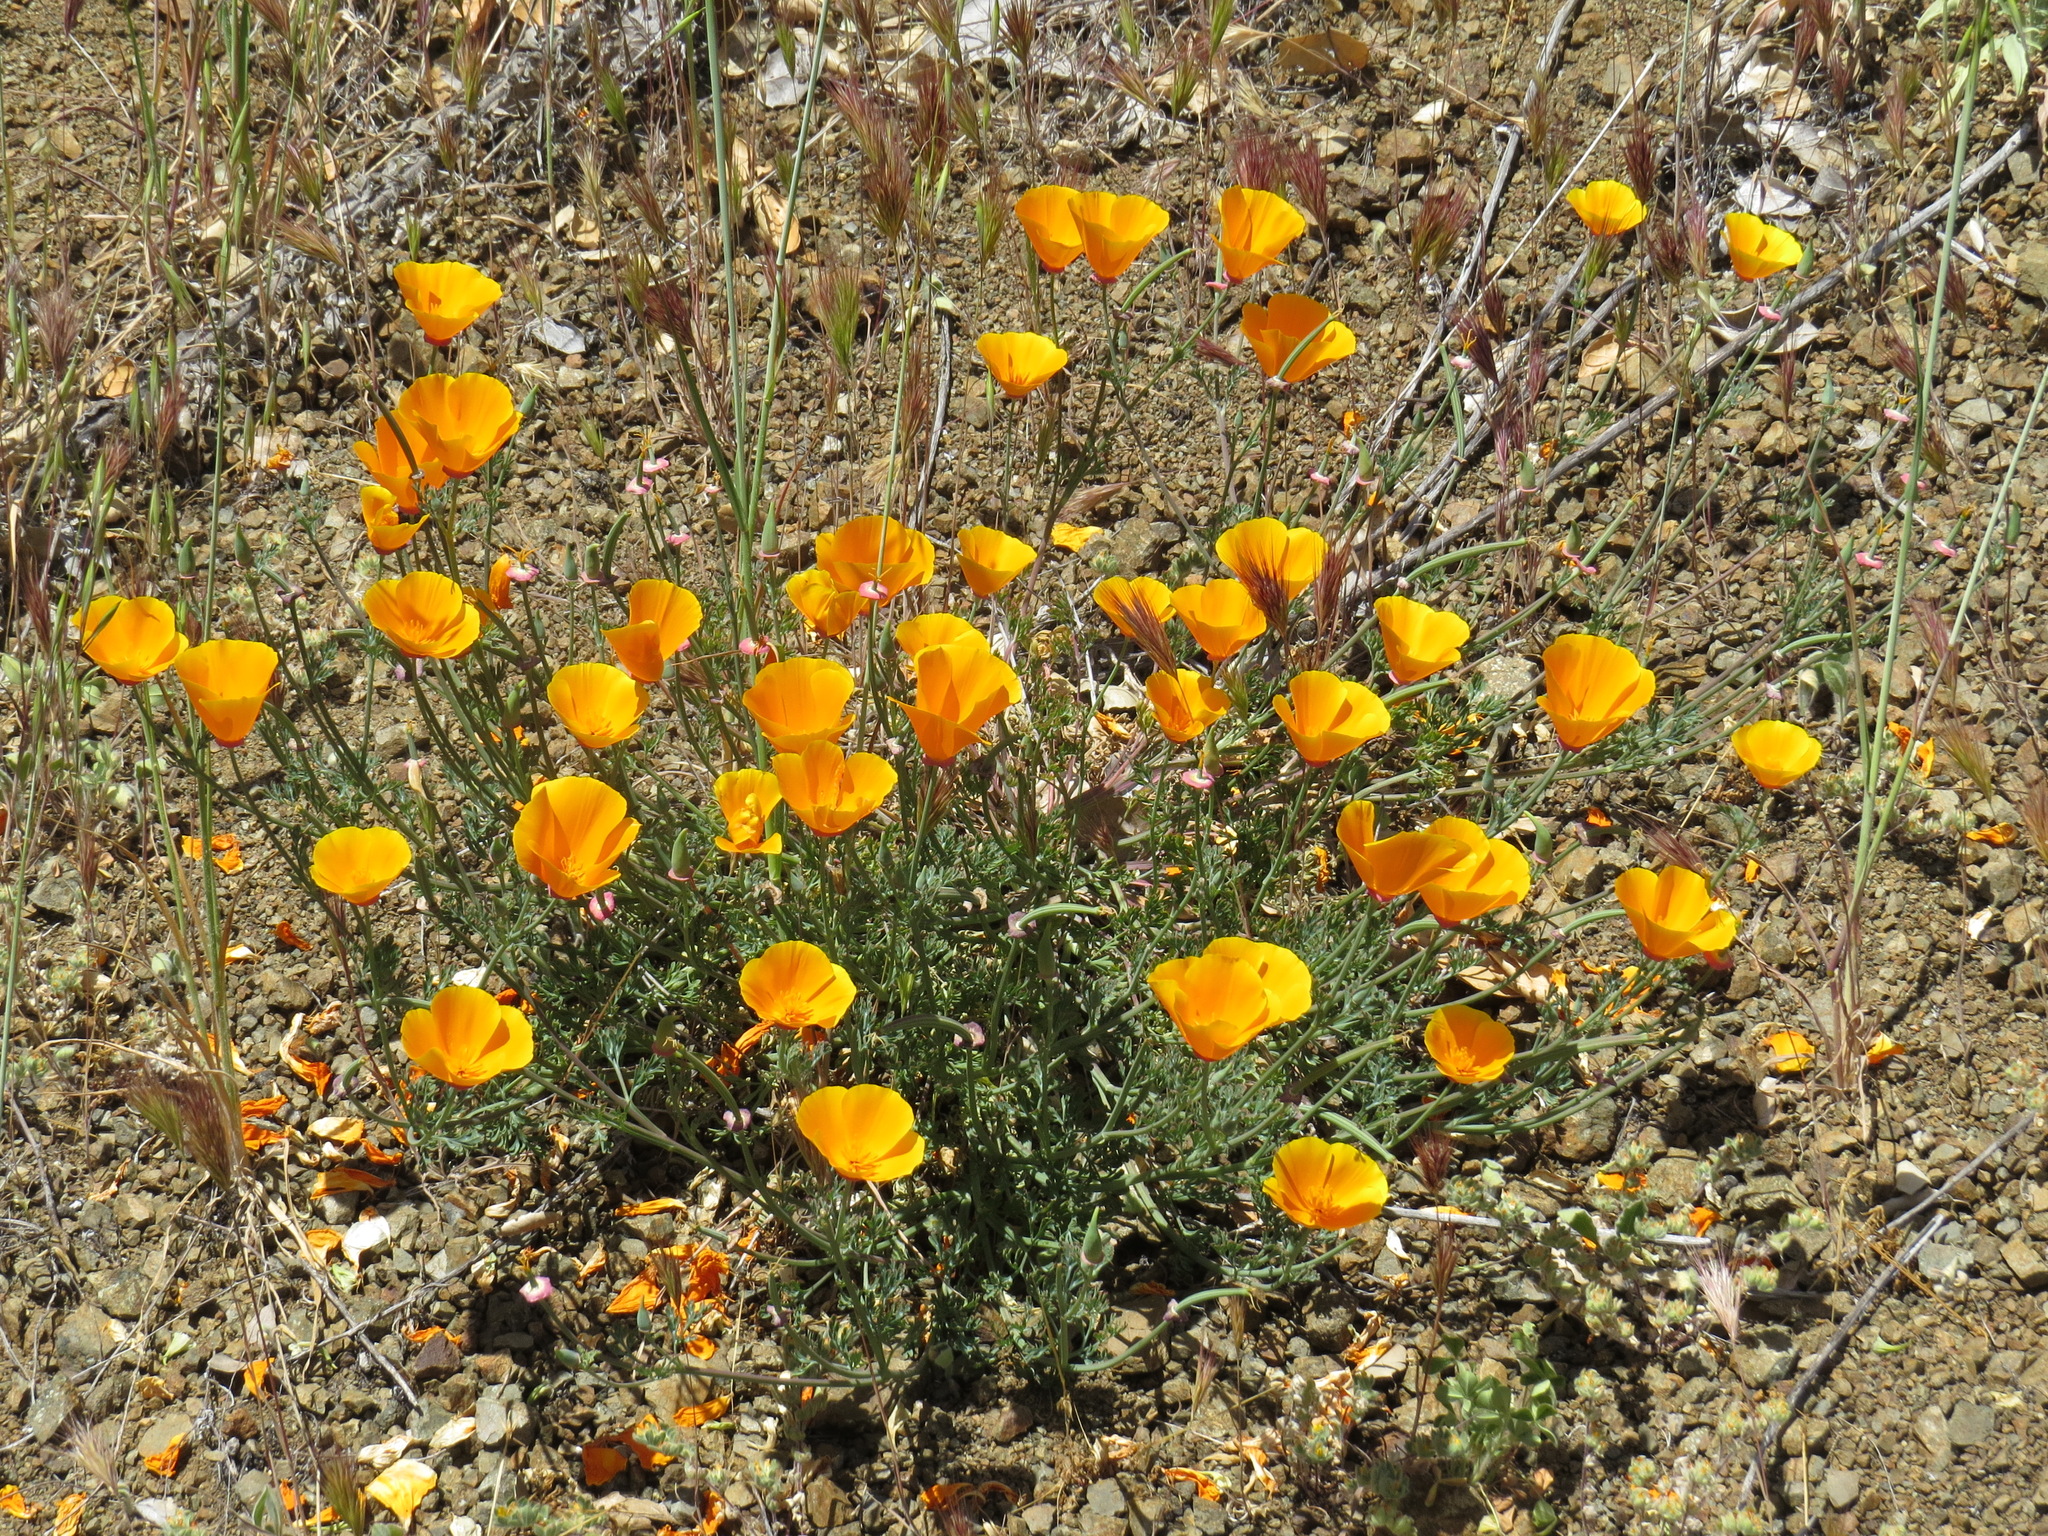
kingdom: Plantae
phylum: Tracheophyta
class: Magnoliopsida
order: Ranunculales
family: Papaveraceae
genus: Eschscholzia
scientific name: Eschscholzia californica
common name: California poppy
